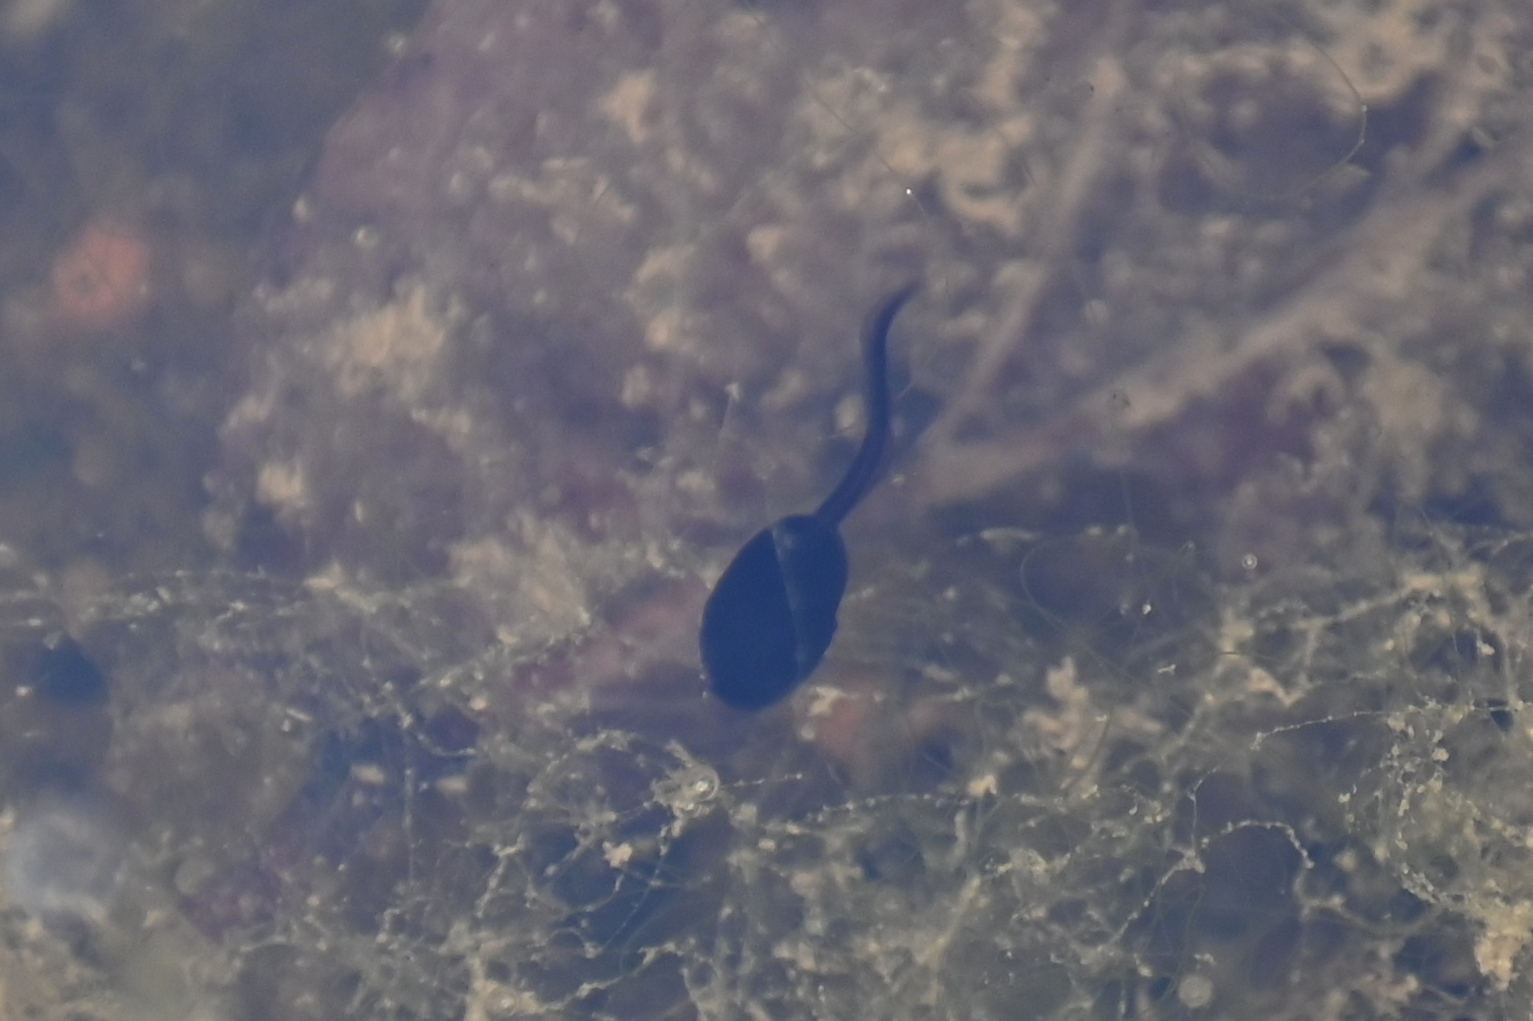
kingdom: Animalia
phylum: Chordata
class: Amphibia
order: Anura
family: Bufonidae
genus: Bufo
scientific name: Bufo bufo
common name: Common toad
